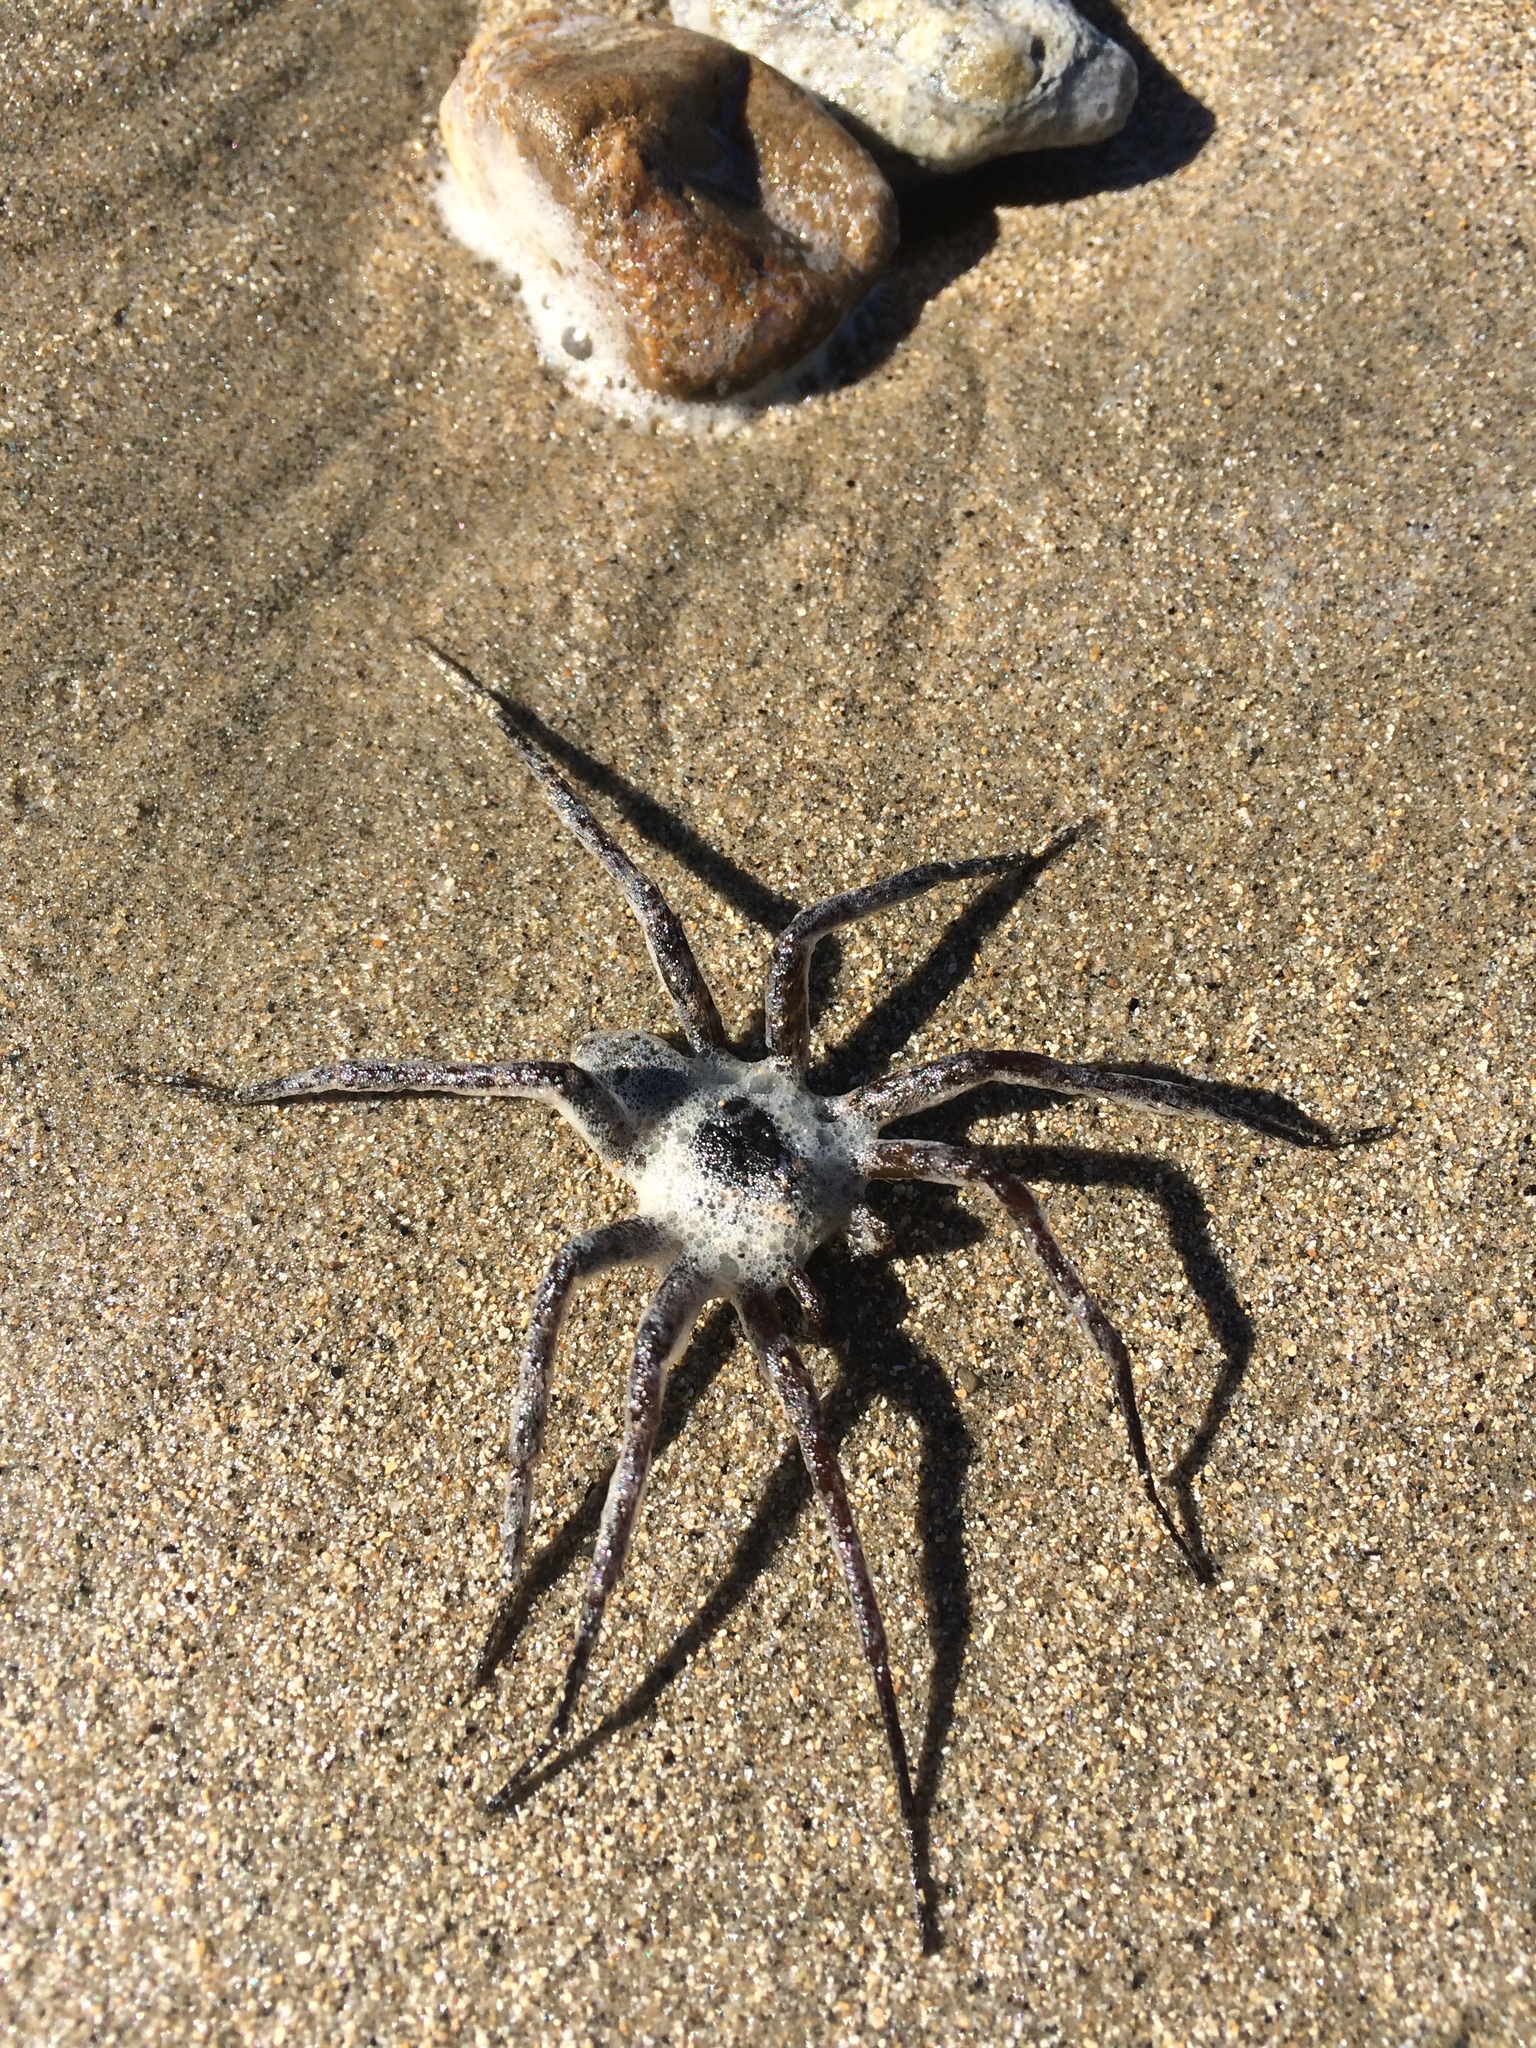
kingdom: Animalia
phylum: Arthropoda
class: Arachnida
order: Araneae
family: Pisauridae
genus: Dolomedes
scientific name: Dolomedes aquaticus
